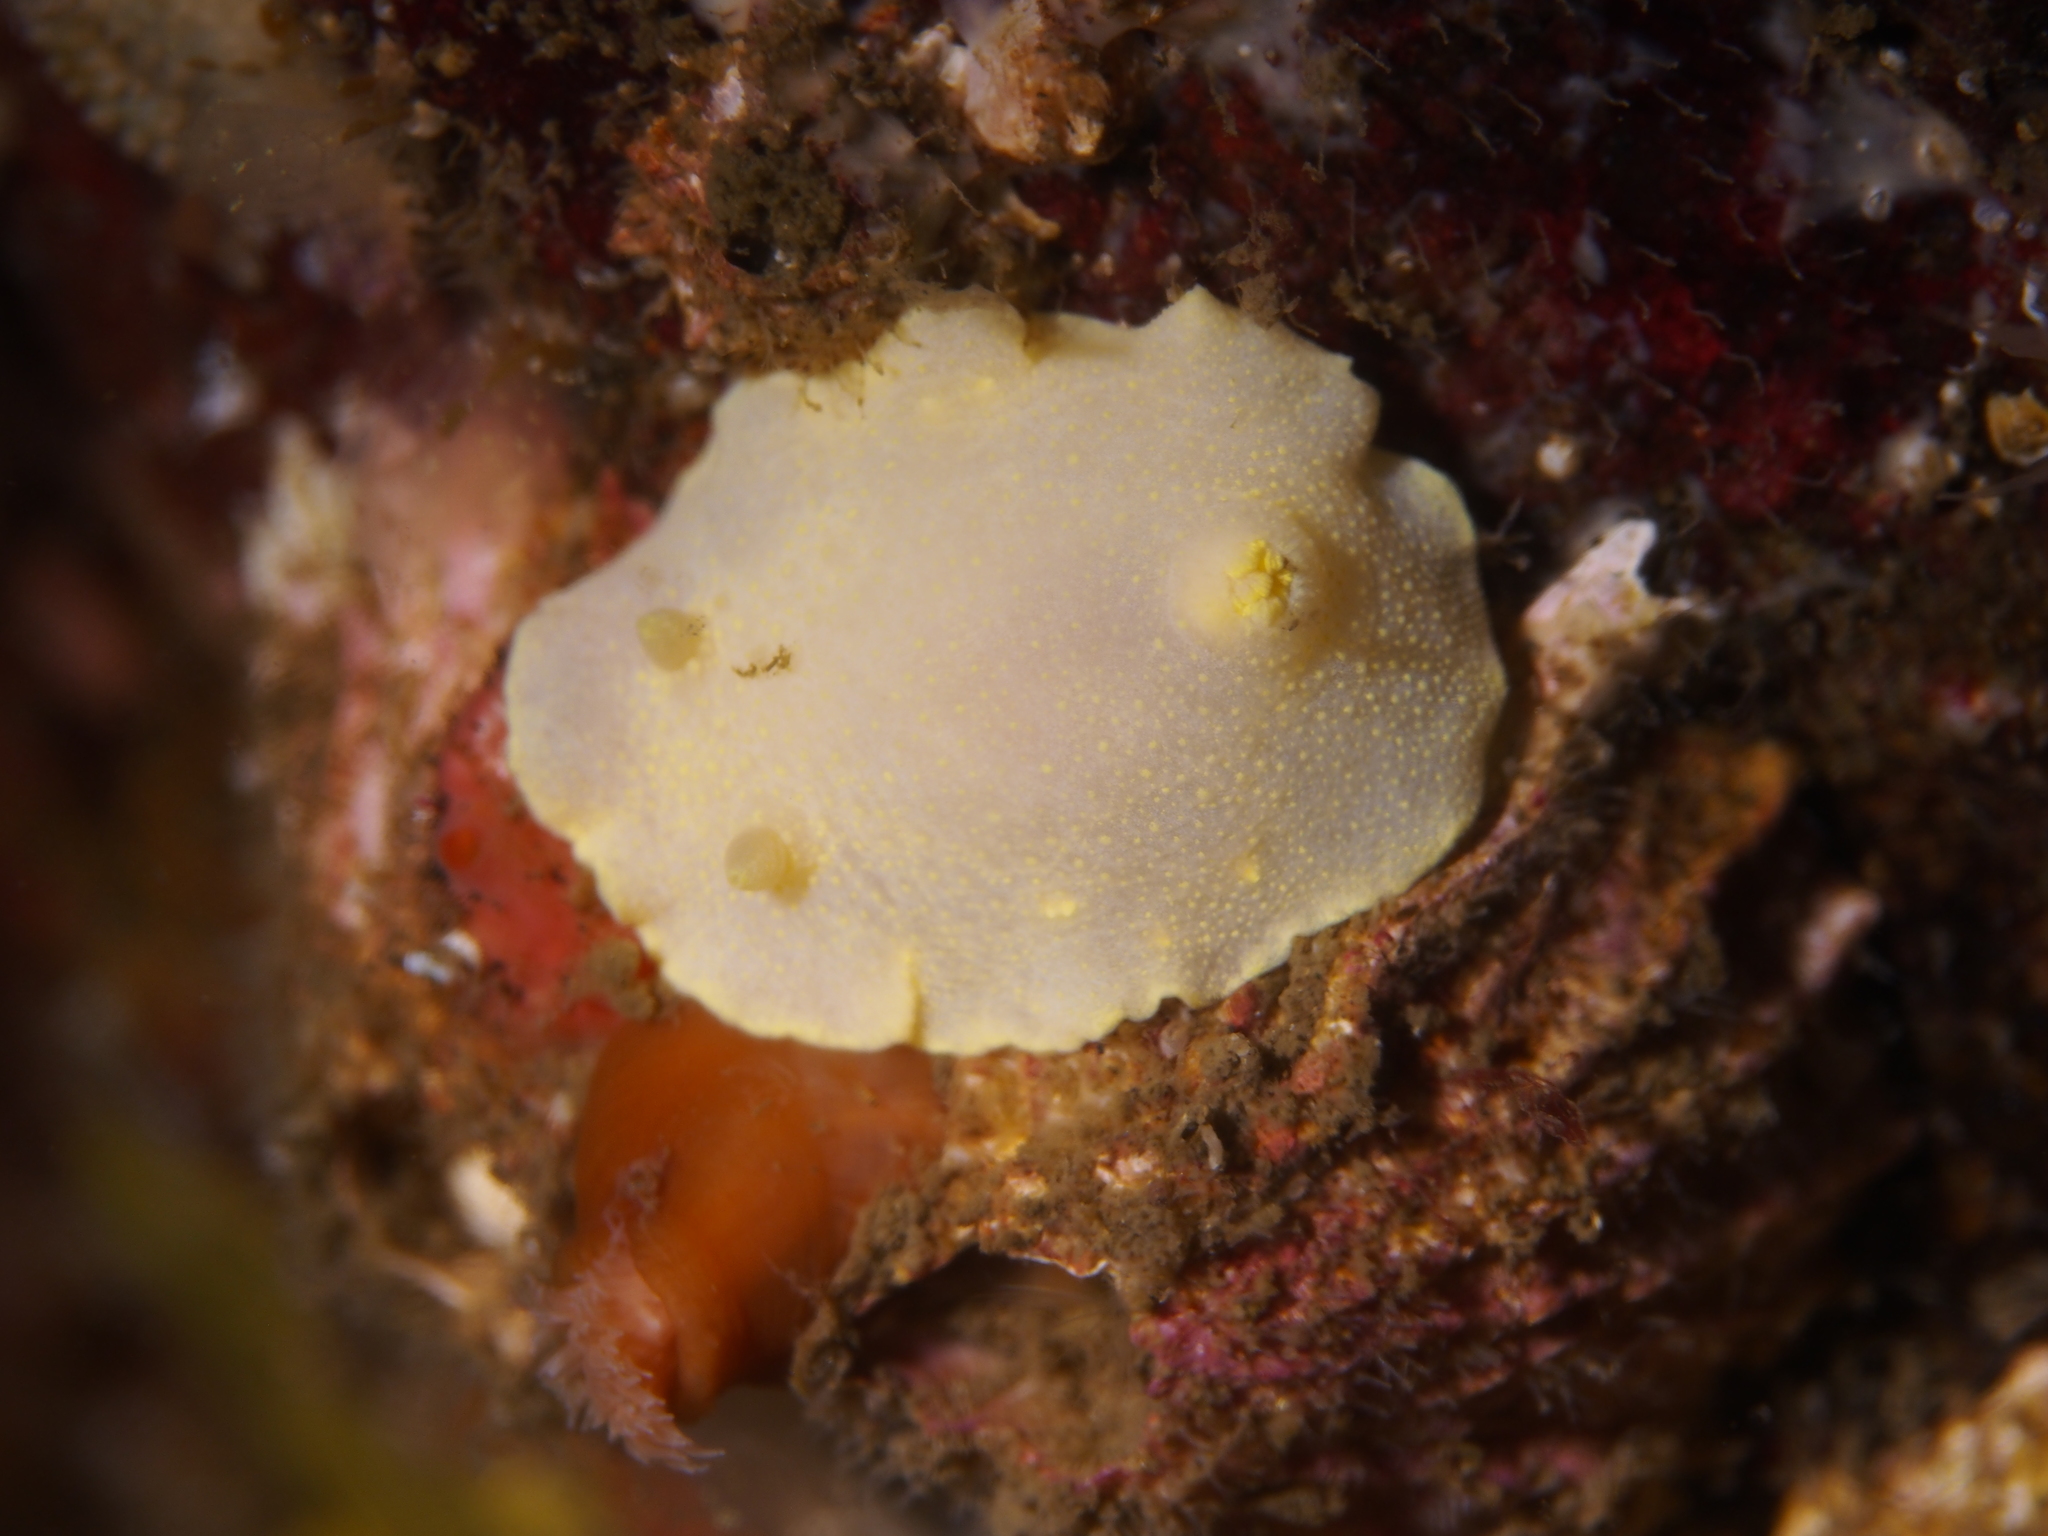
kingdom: Animalia
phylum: Mollusca
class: Gastropoda
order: Nudibranchia
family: Cadlinidae
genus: Cadlina
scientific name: Cadlina laevis
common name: White atlantic cadlina
